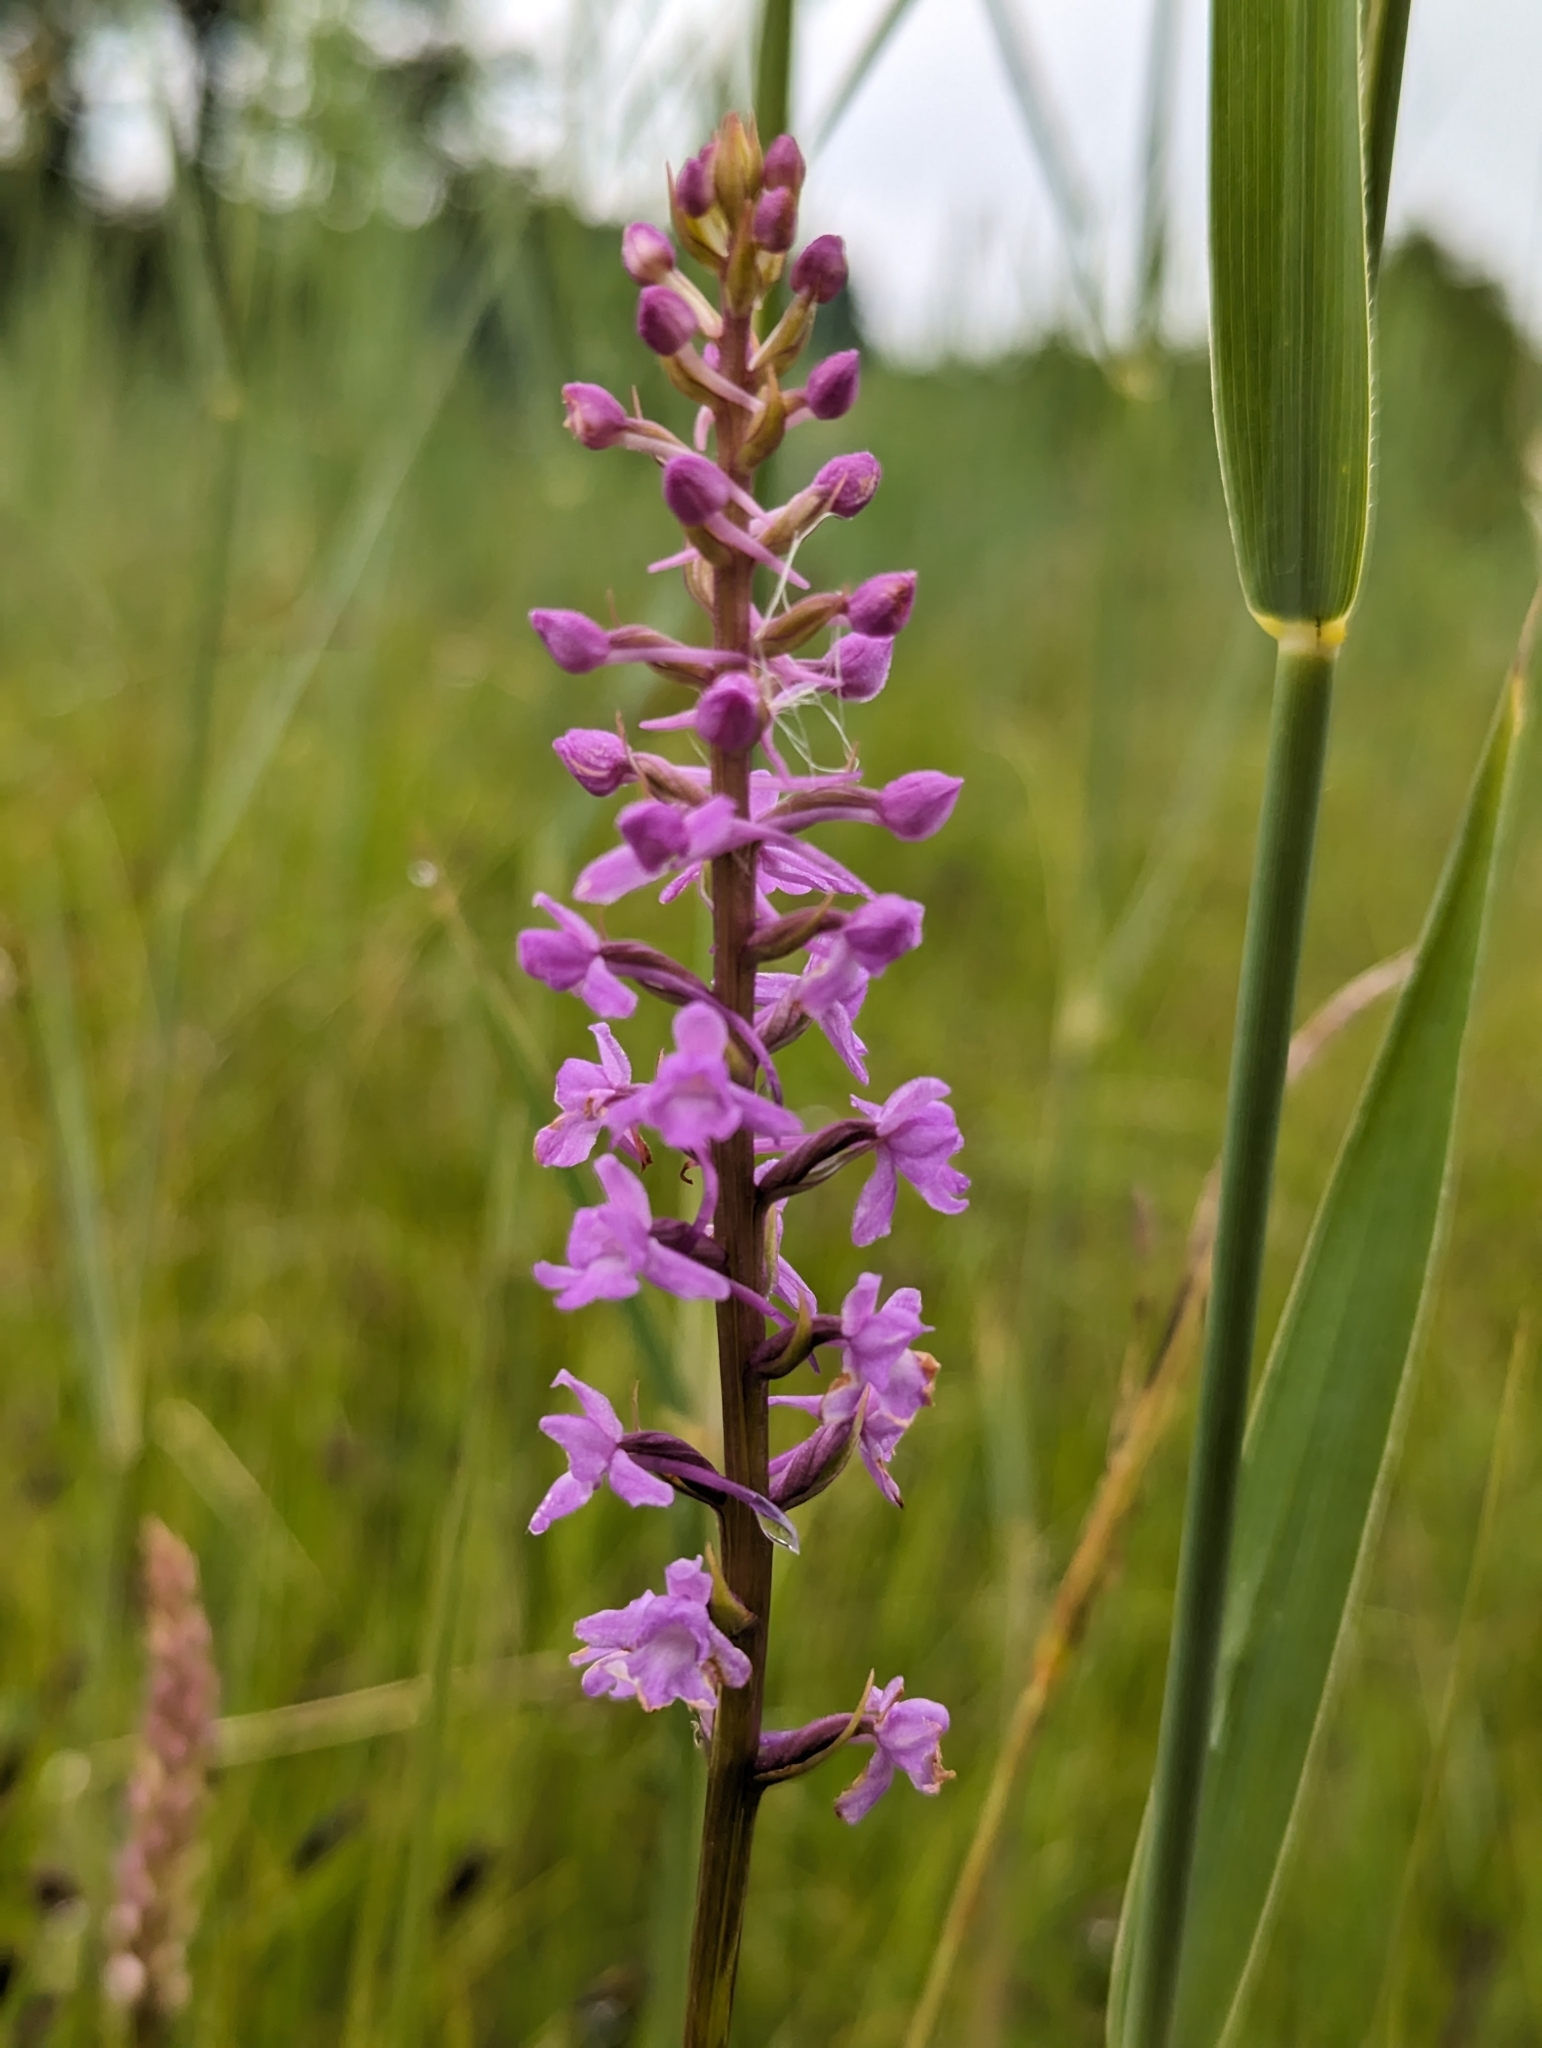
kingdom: Plantae
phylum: Tracheophyta
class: Liliopsida
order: Asparagales
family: Orchidaceae
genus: Gymnadenia
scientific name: Gymnadenia conopsea
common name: Fragrant orchid
